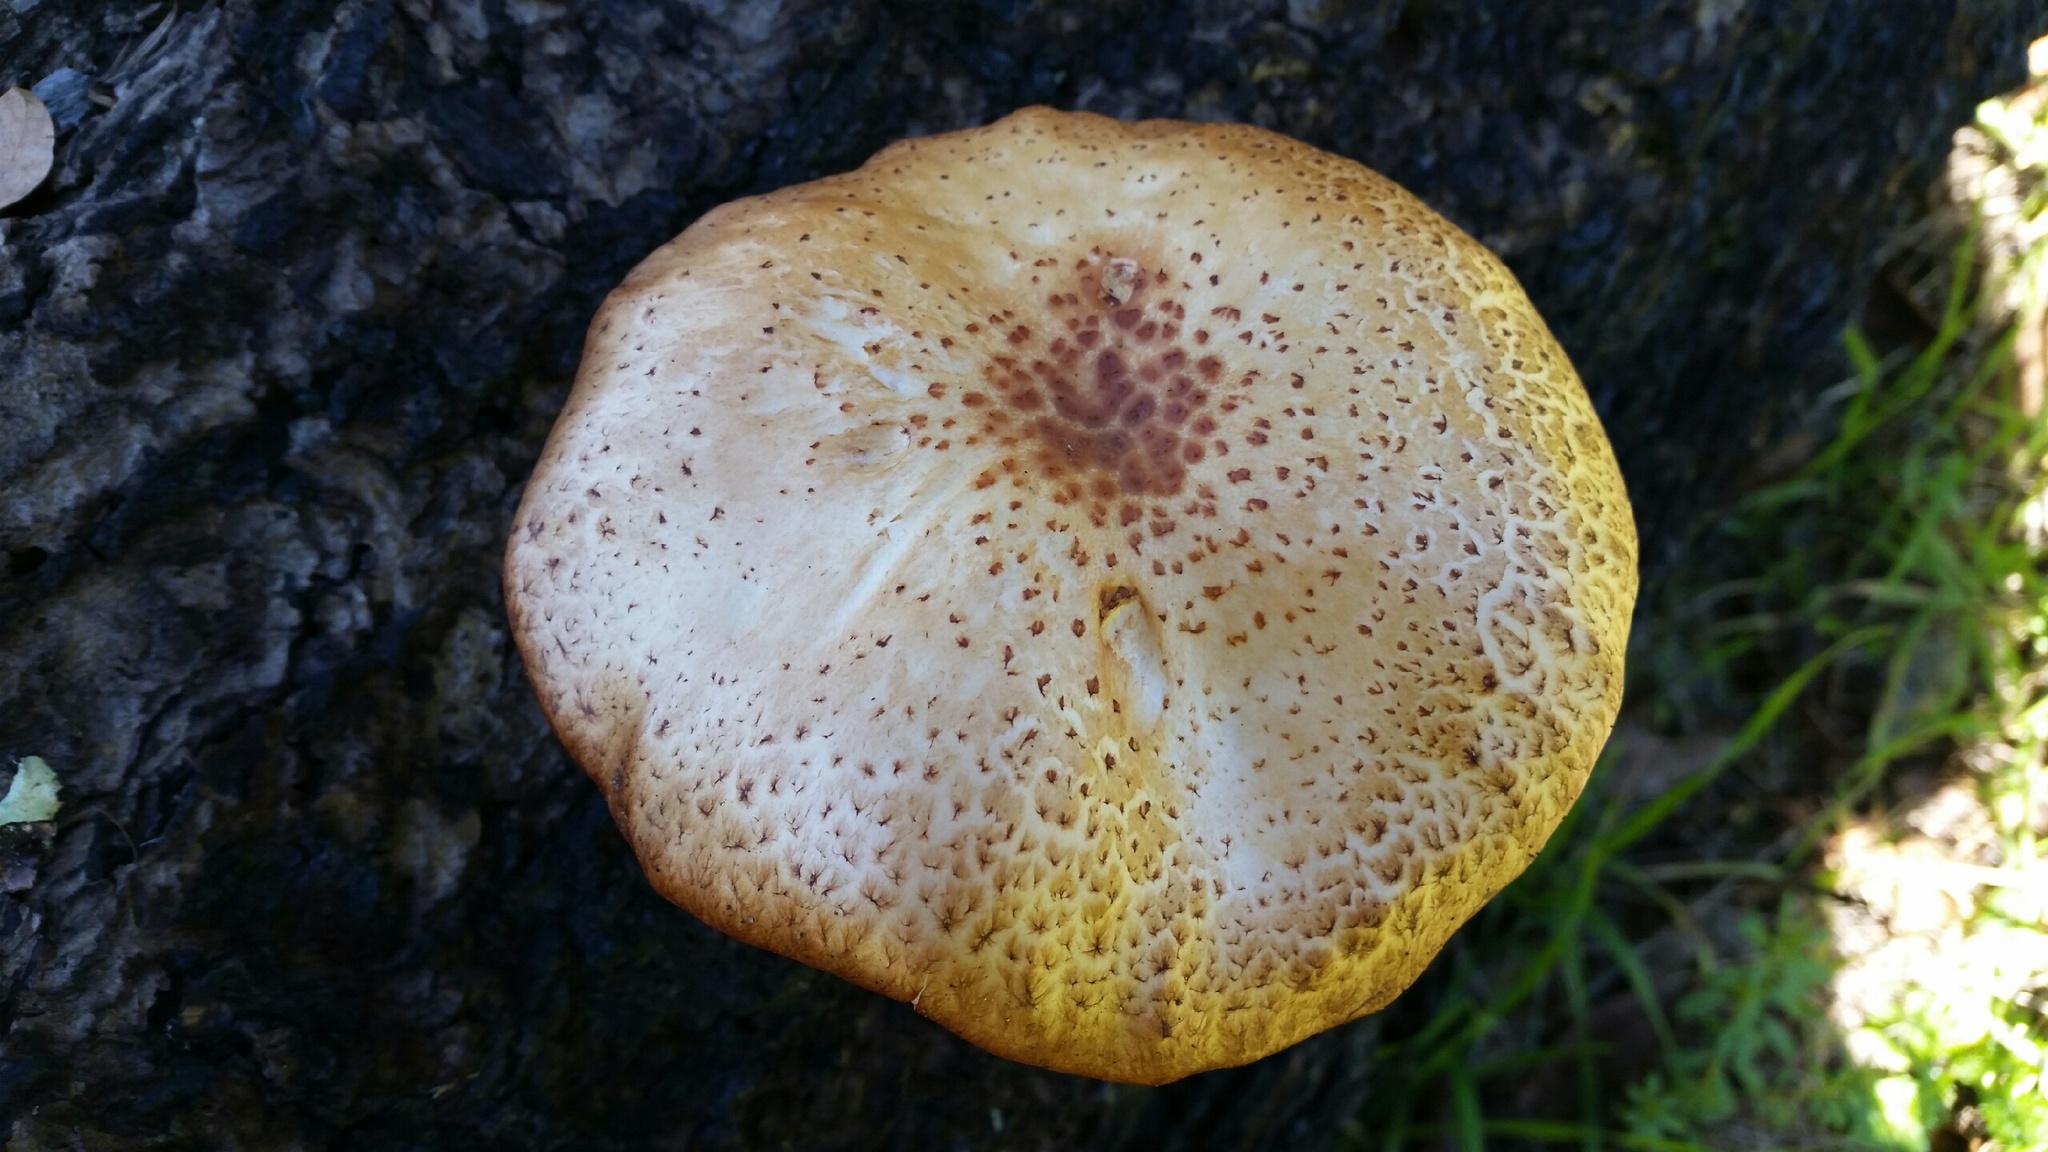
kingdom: Fungi
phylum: Basidiomycota
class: Agaricomycetes
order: Agaricales
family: Hymenogastraceae
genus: Gymnopilus
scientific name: Gymnopilus luteofolius
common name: Yellow-gilled gymnopilus
